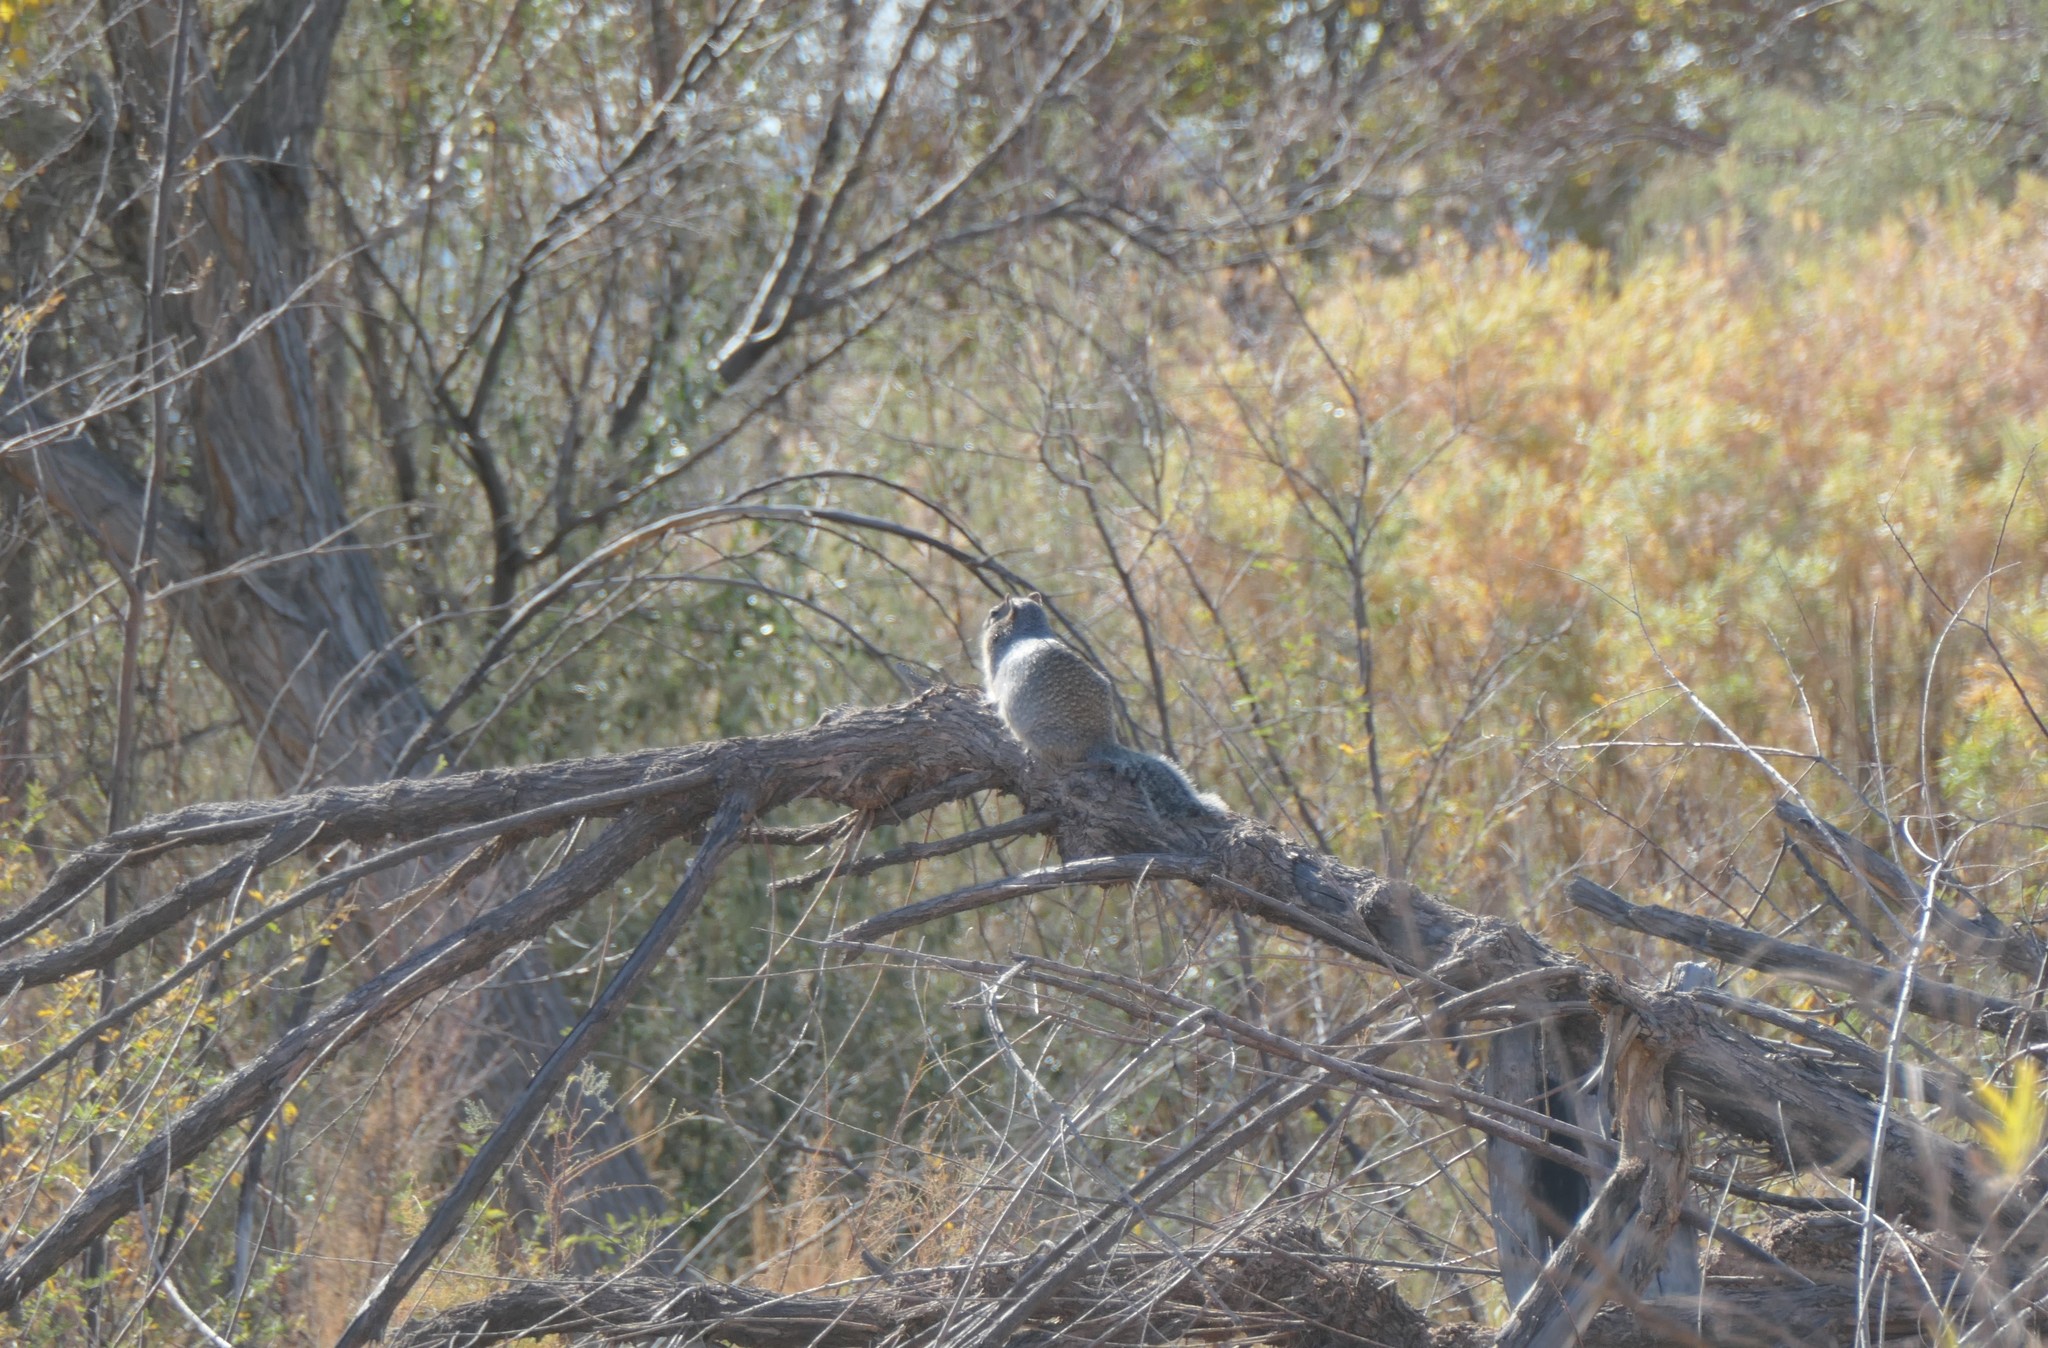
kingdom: Animalia
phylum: Chordata
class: Mammalia
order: Rodentia
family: Sciuridae
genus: Otospermophilus
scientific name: Otospermophilus variegatus
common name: Rock squirrel
